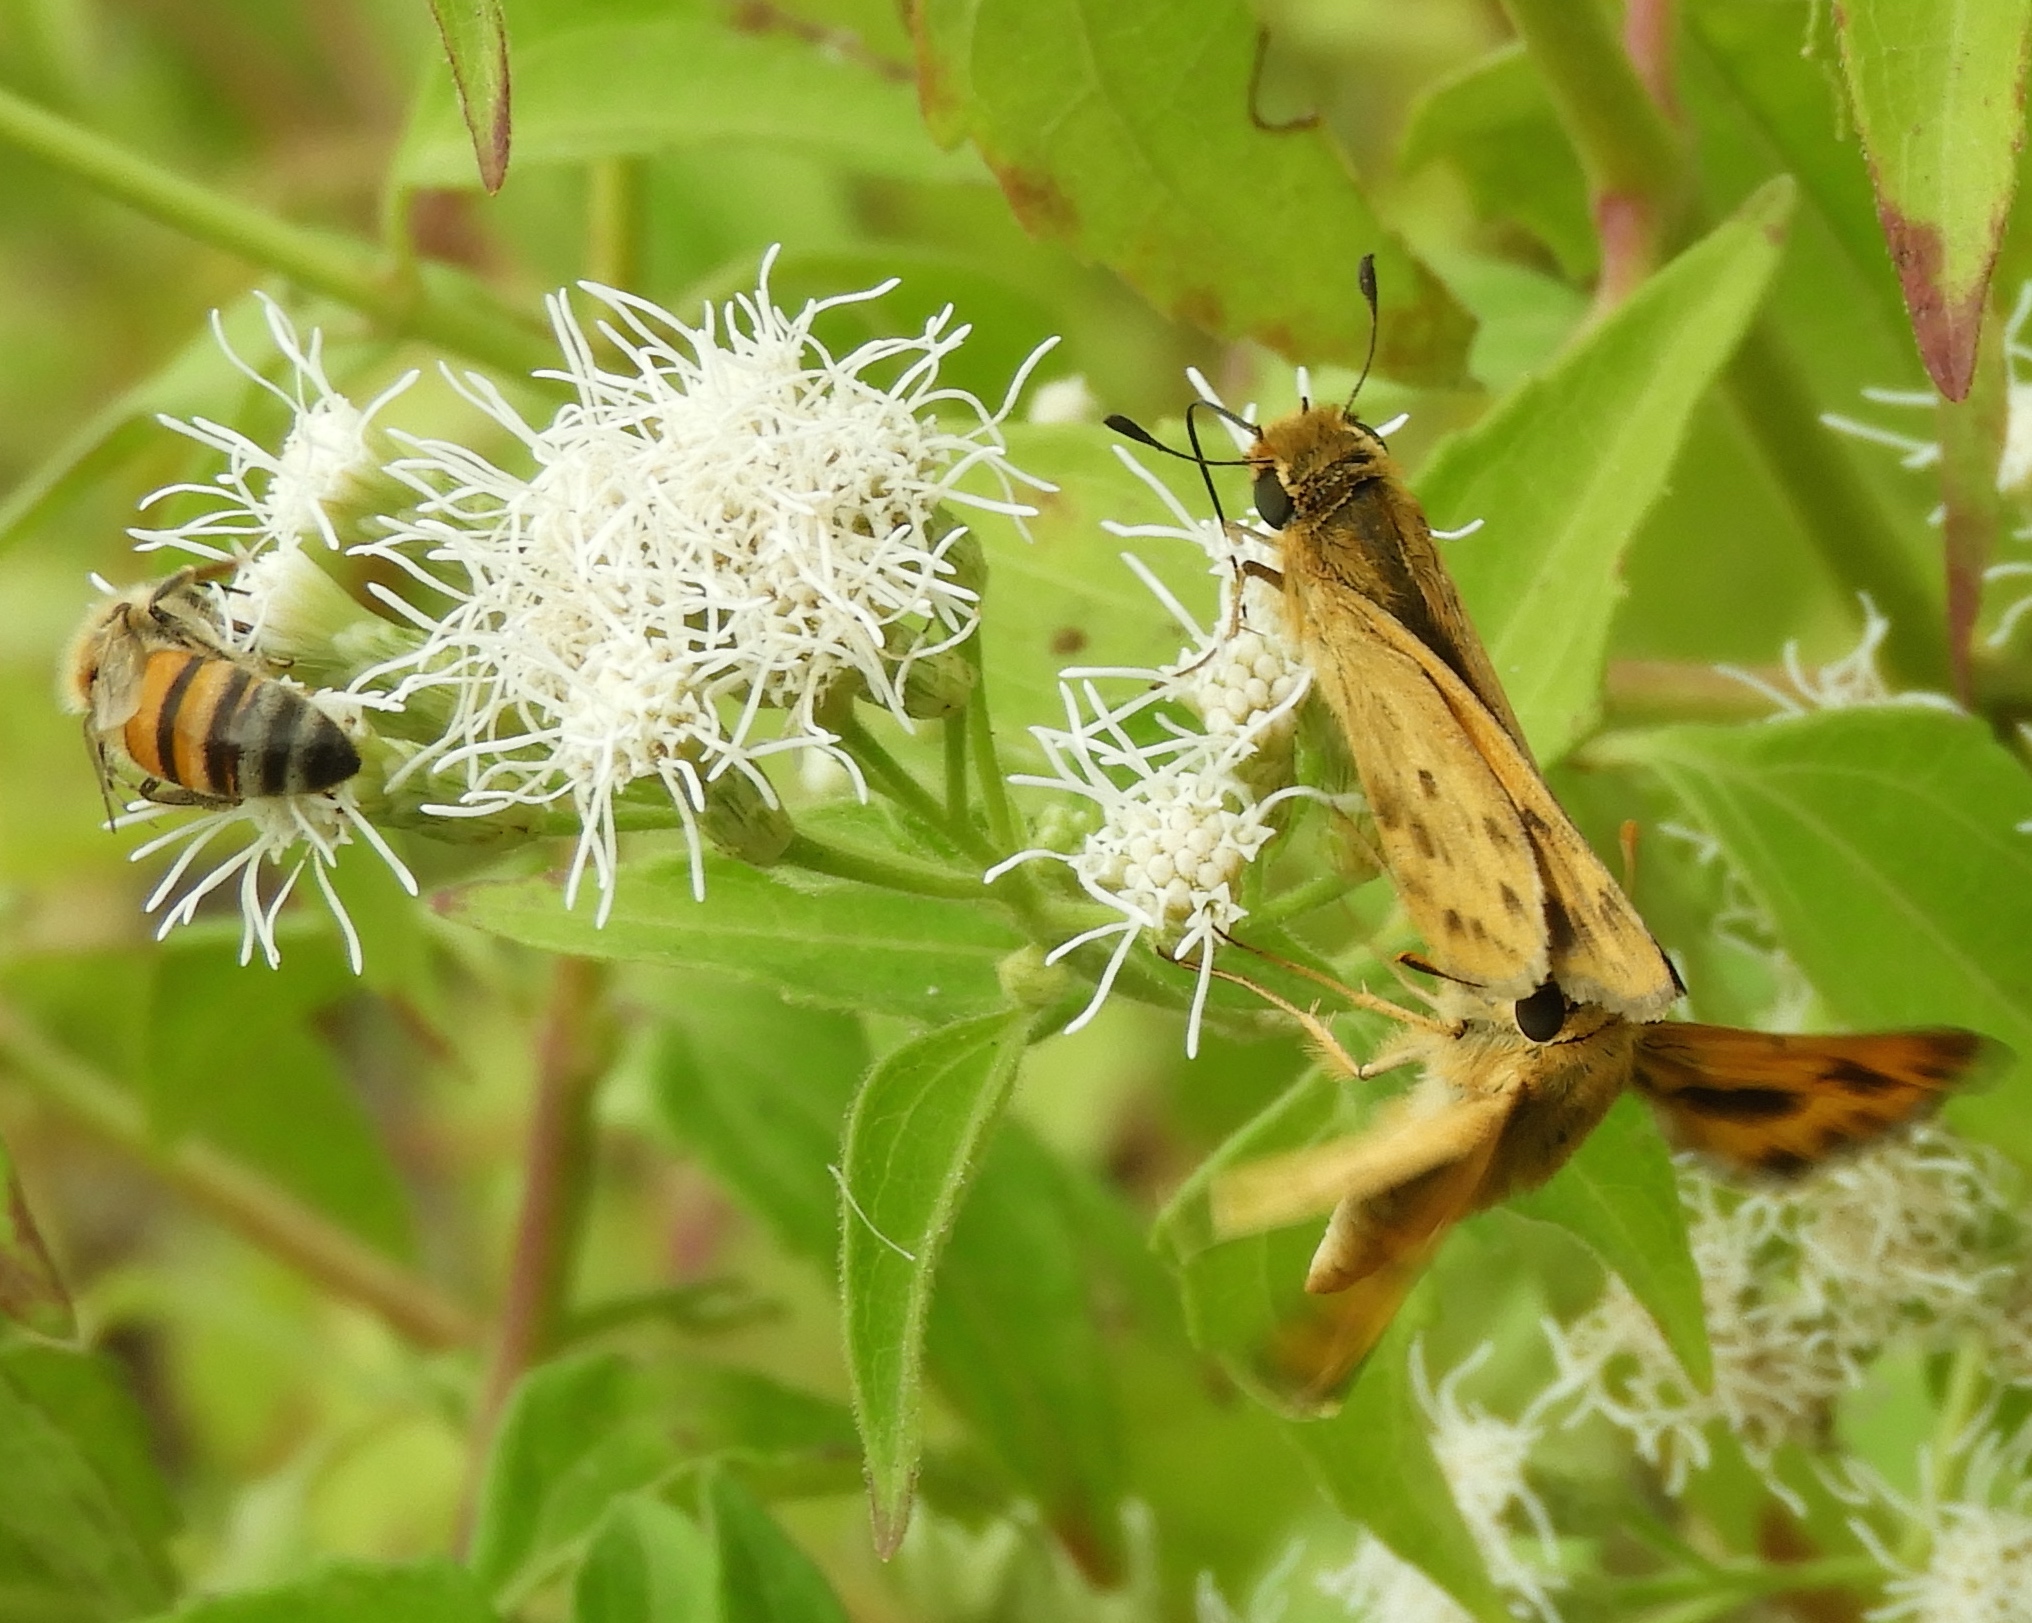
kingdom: Animalia
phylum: Arthropoda
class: Insecta
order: Lepidoptera
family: Hesperiidae
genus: Hylephila
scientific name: Hylephila phyleus
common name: Fiery skipper
